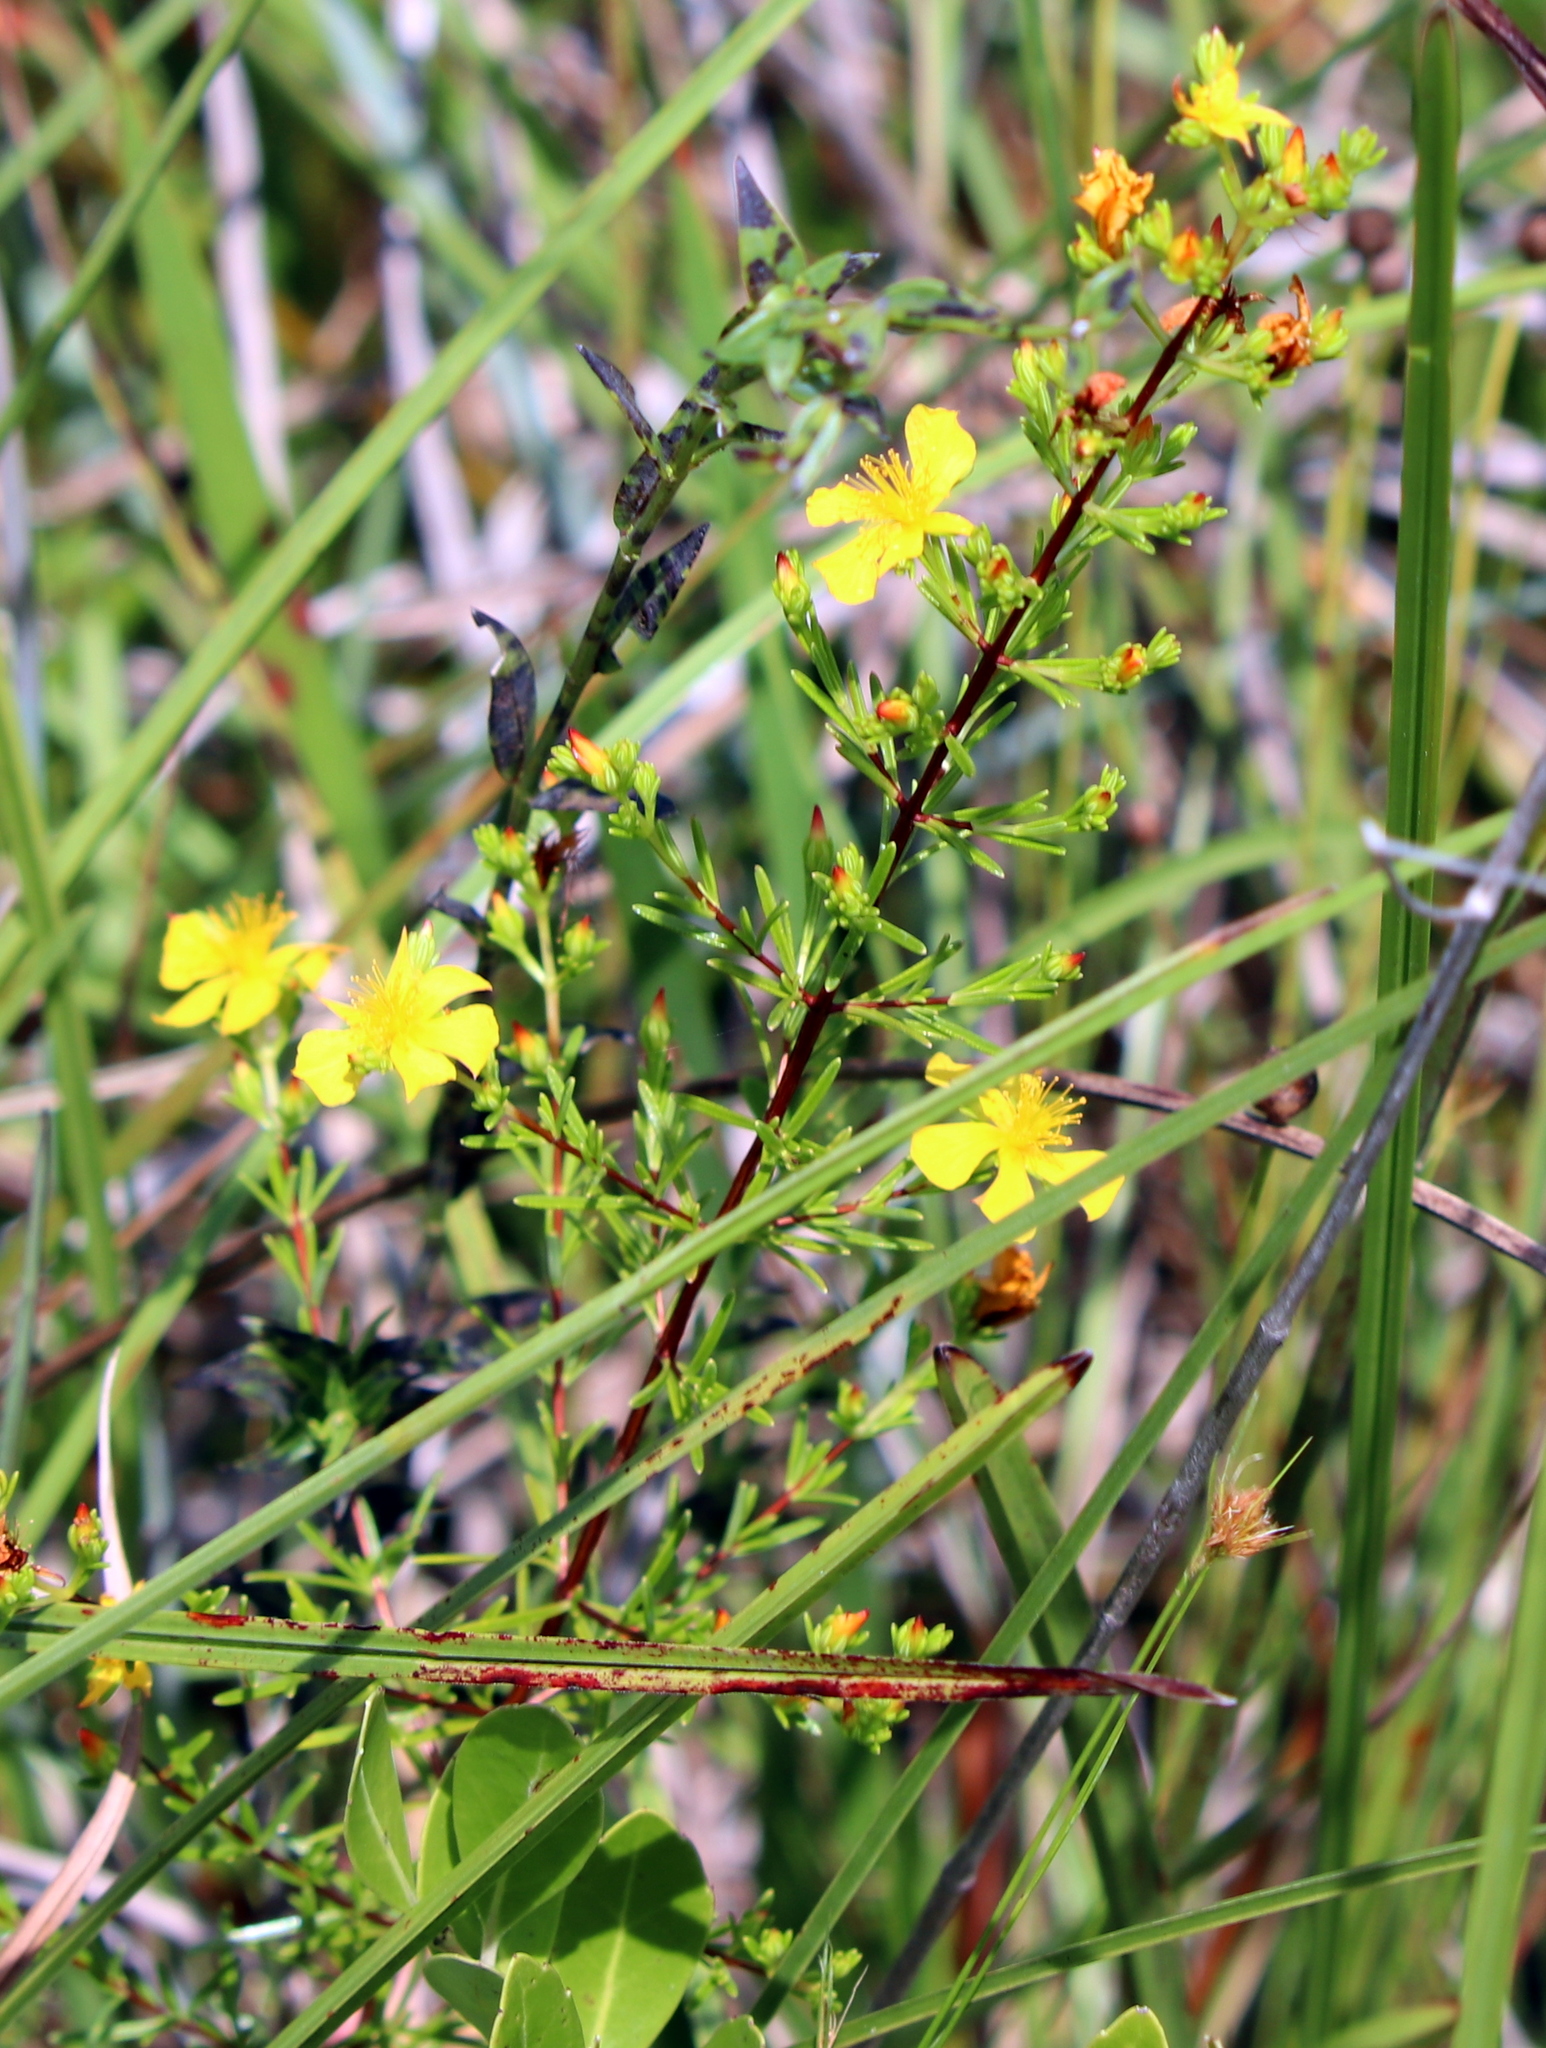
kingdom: Plantae
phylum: Tracheophyta
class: Magnoliopsida
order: Malpighiales
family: Hypericaceae
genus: Hypericum
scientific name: Hypericum brachyphyllum
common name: Coastal plain st. john's-wort
